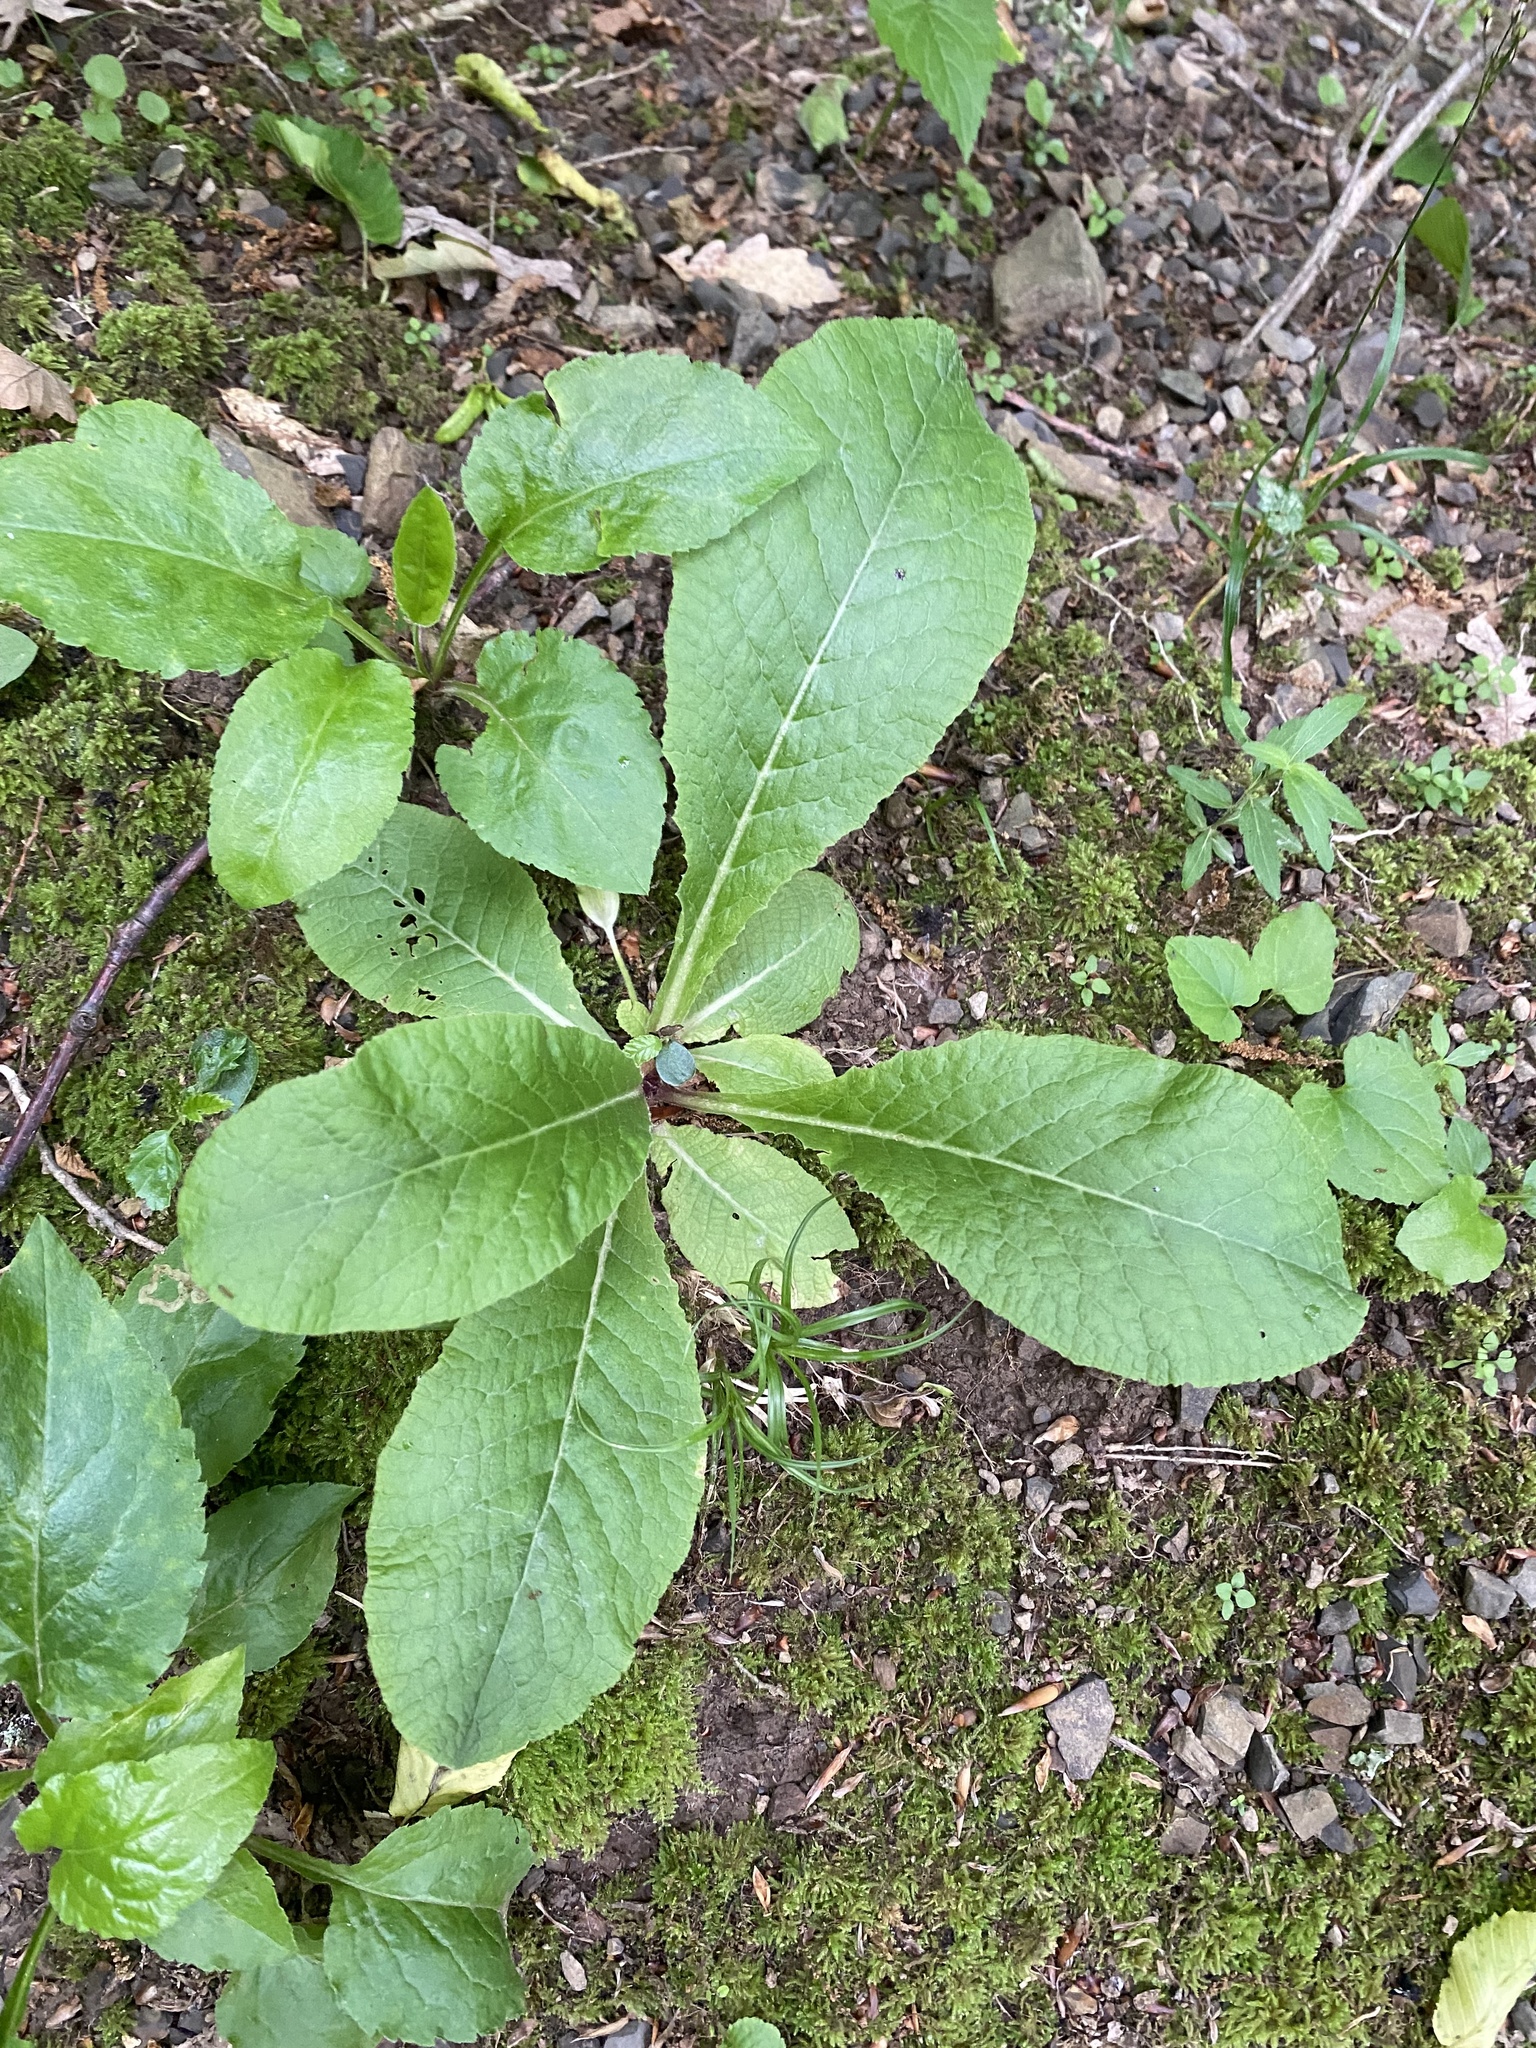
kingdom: Plantae
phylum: Tracheophyta
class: Magnoliopsida
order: Ericales
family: Primulaceae
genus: Primula
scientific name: Primula vulgaris
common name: Primrose
